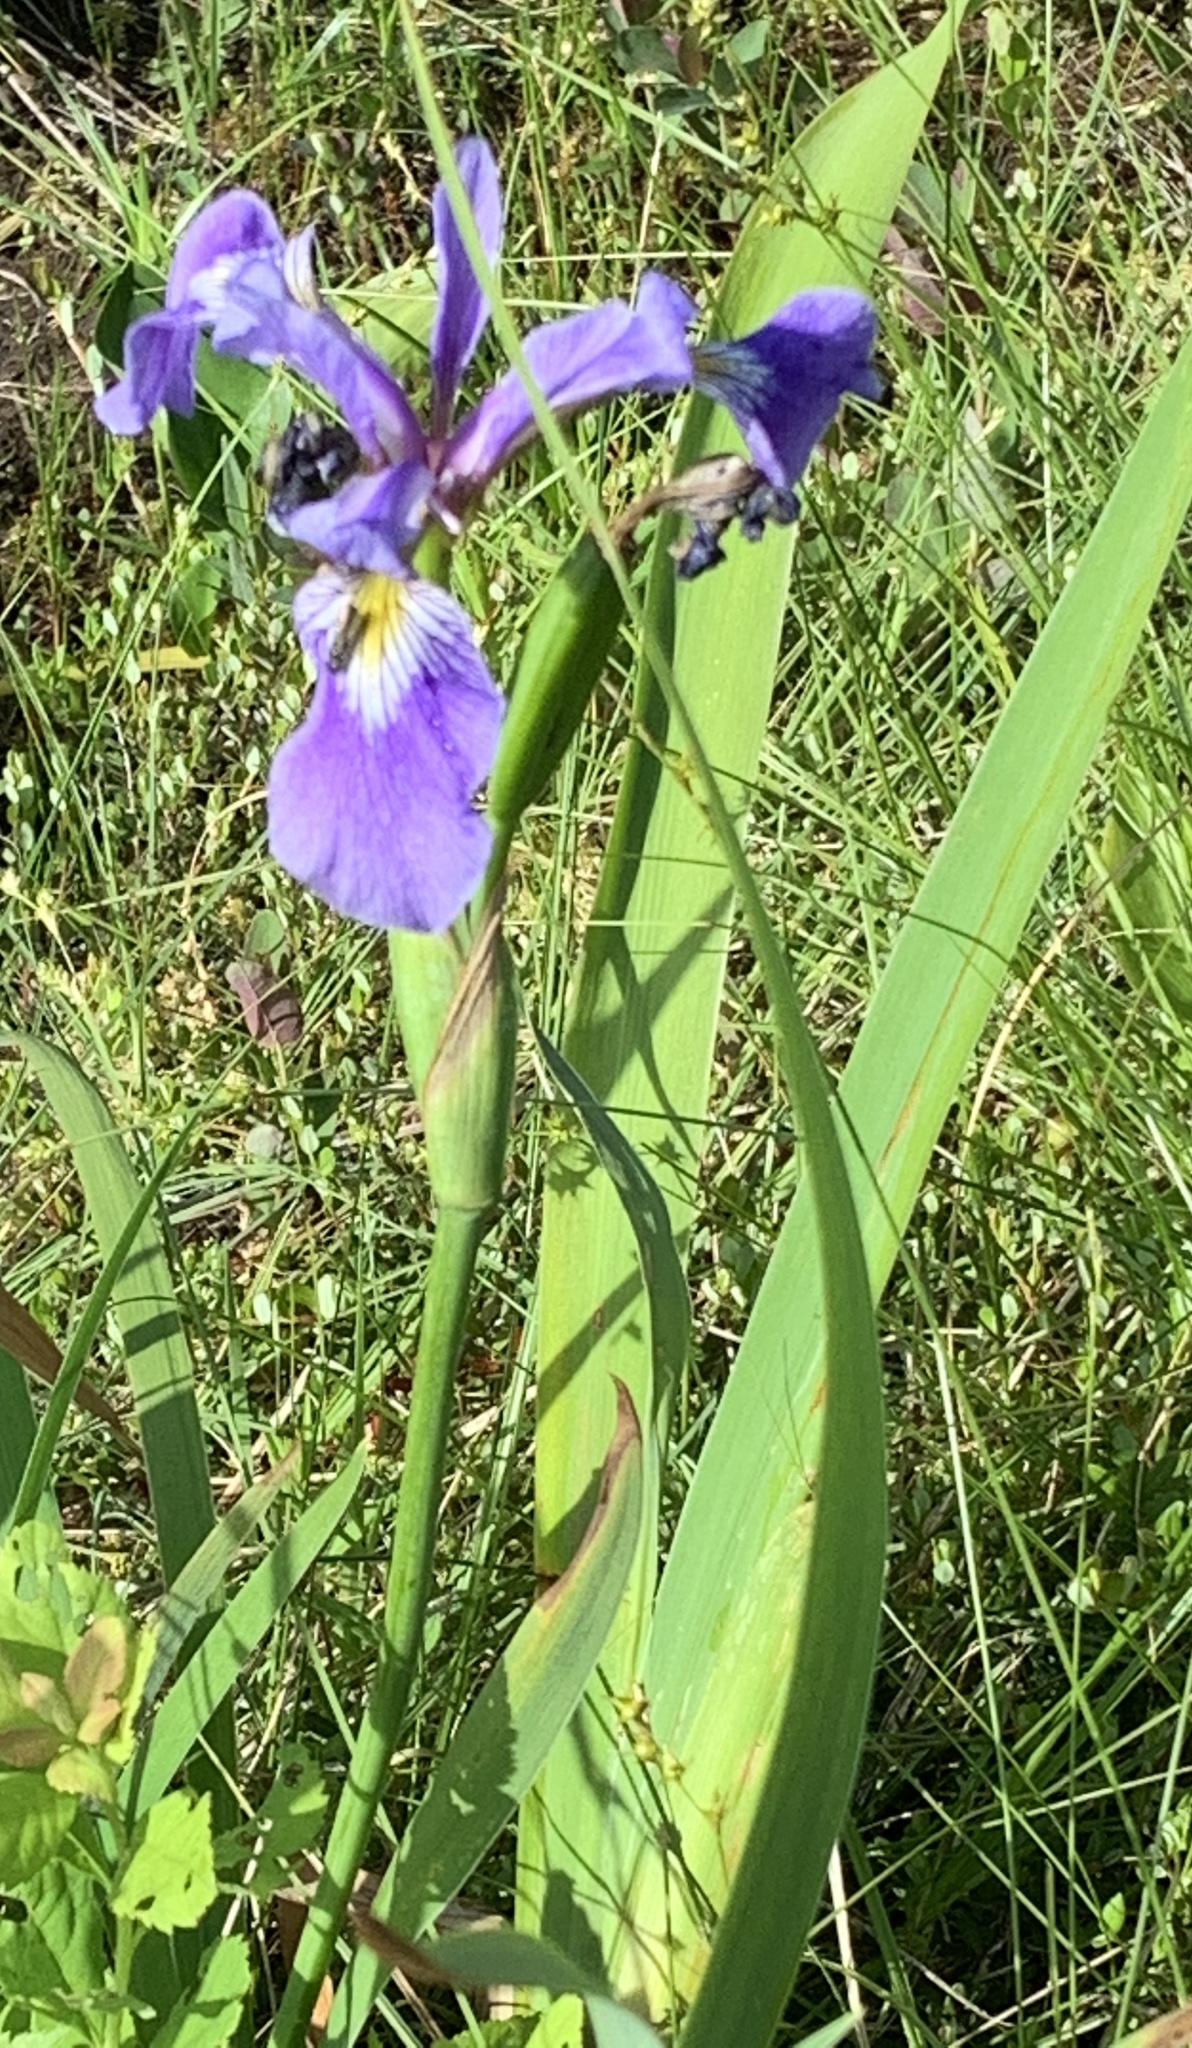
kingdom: Plantae
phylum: Tracheophyta
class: Liliopsida
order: Asparagales
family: Iridaceae
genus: Iris
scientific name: Iris versicolor
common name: Purple iris
